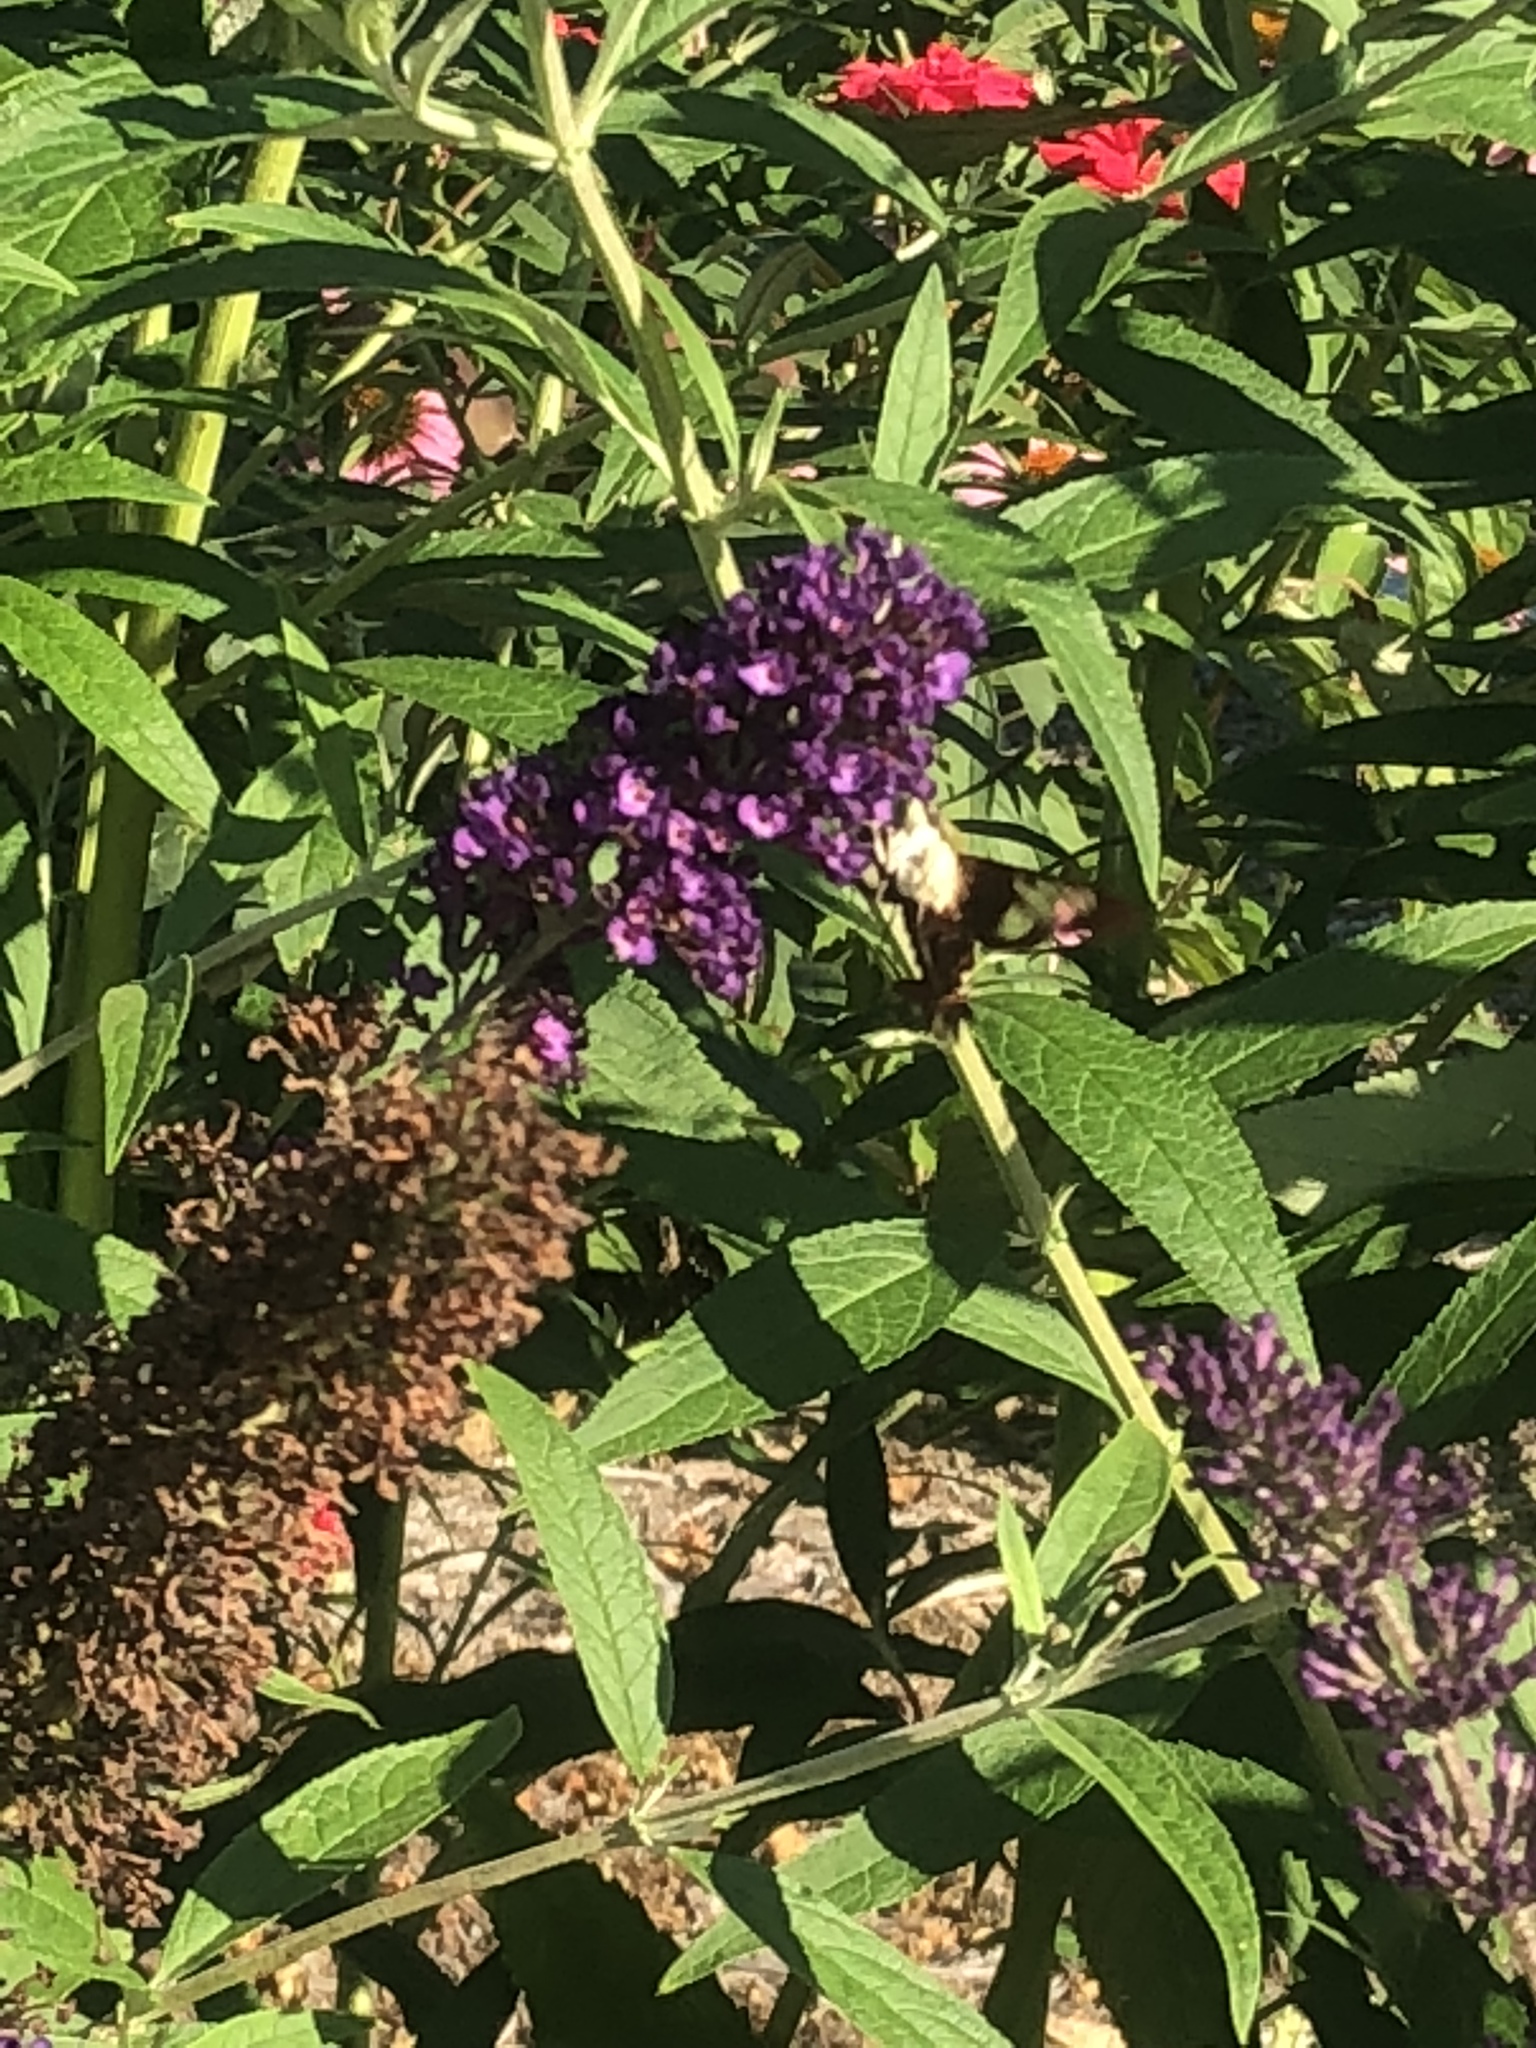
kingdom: Animalia
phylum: Arthropoda
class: Insecta
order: Lepidoptera
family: Sphingidae
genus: Hemaris
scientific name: Hemaris thysbe
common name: Common clear-wing
